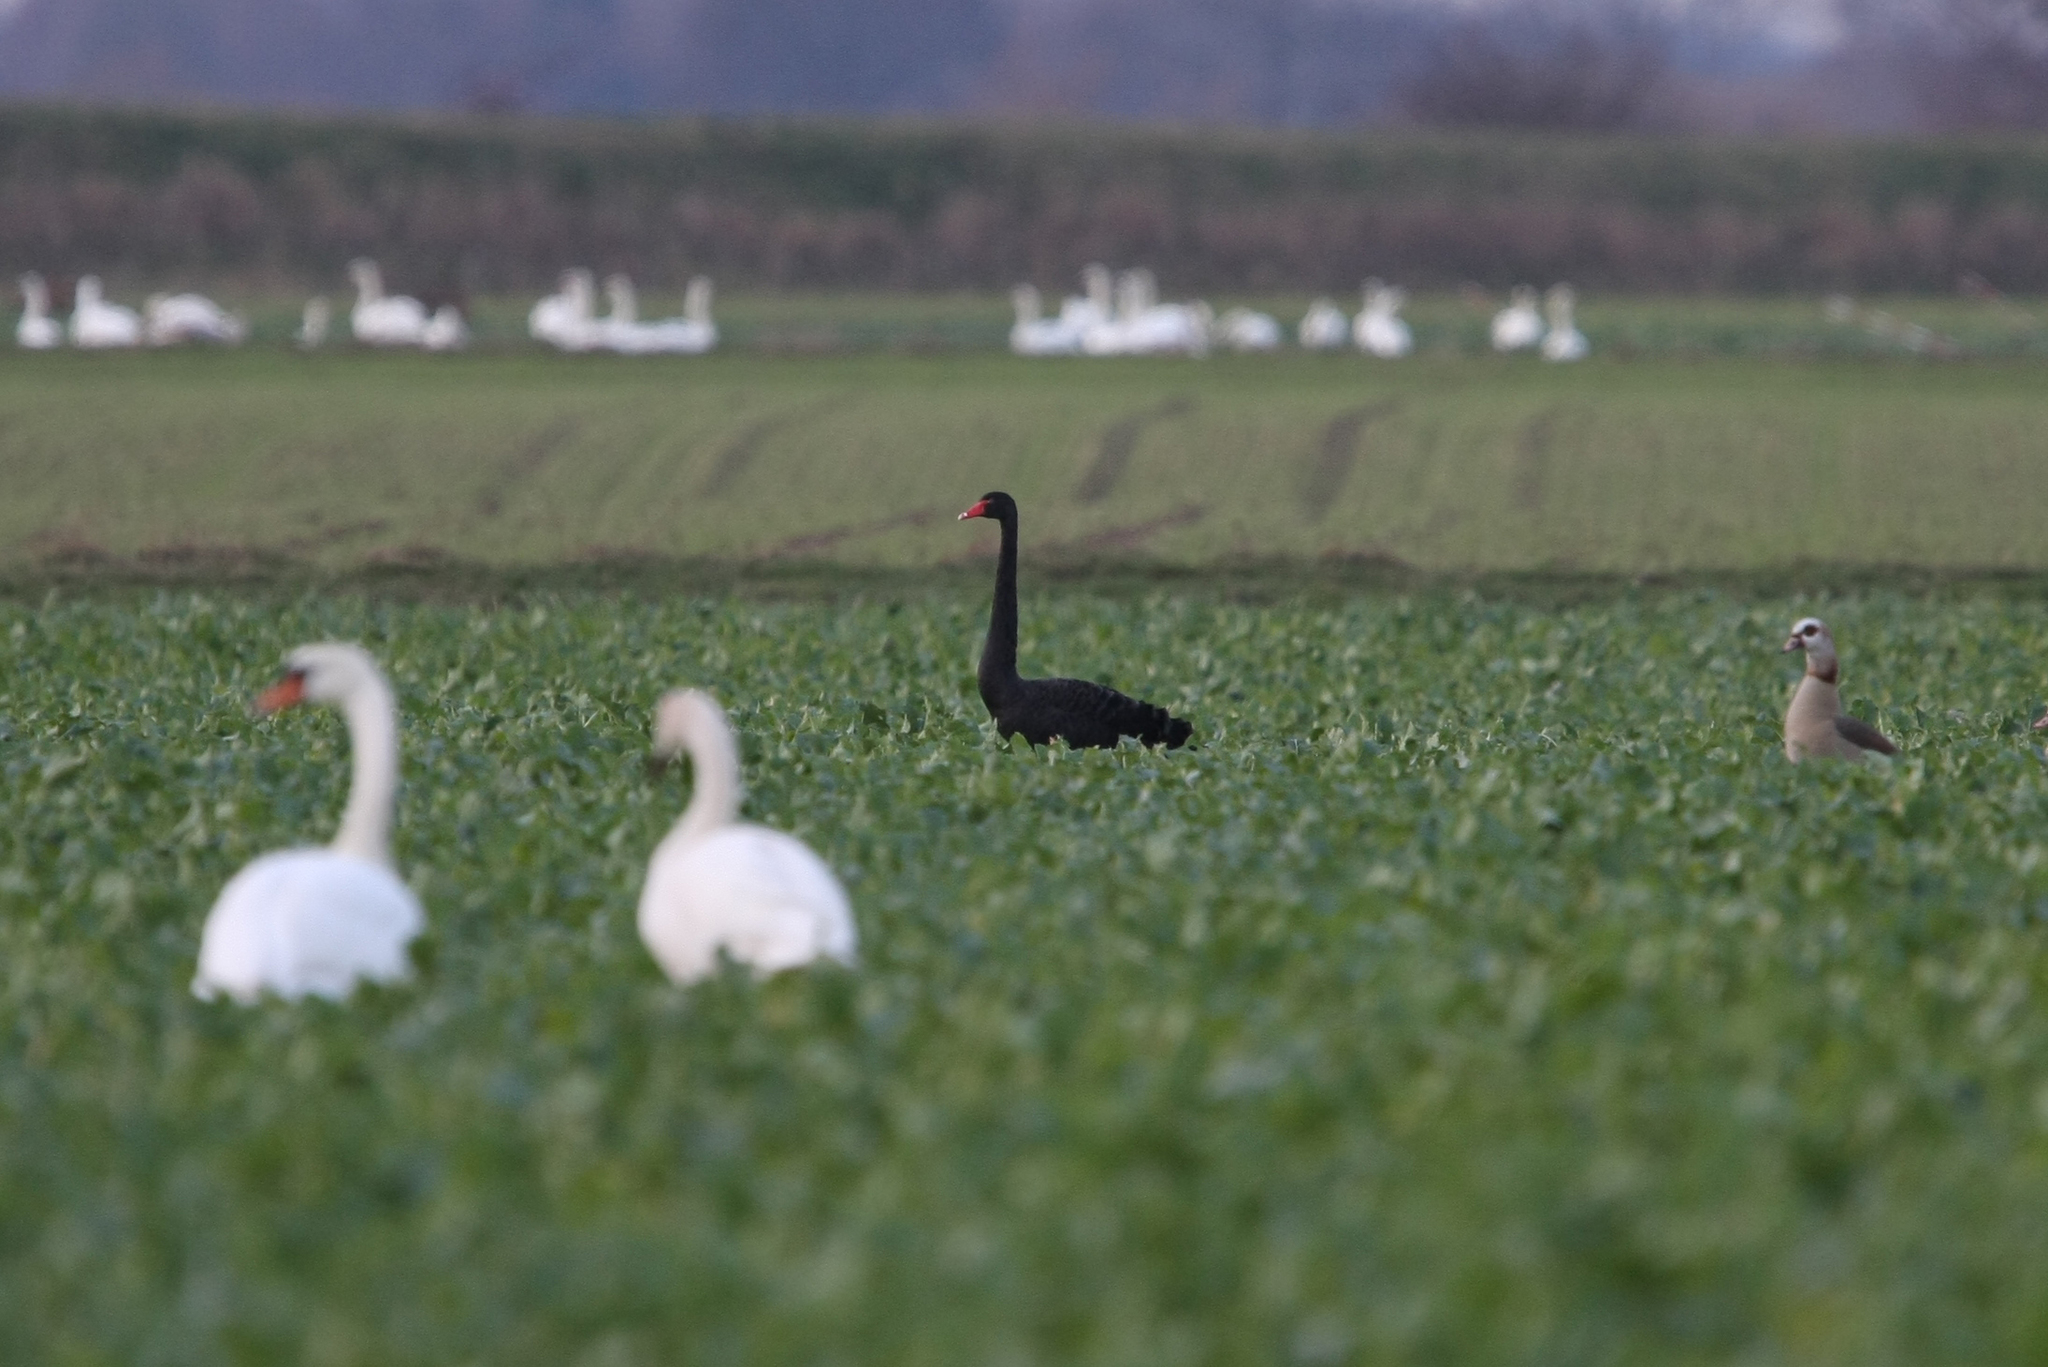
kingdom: Animalia
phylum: Chordata
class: Aves
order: Anseriformes
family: Anatidae
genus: Cygnus
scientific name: Cygnus atratus
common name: Black swan
